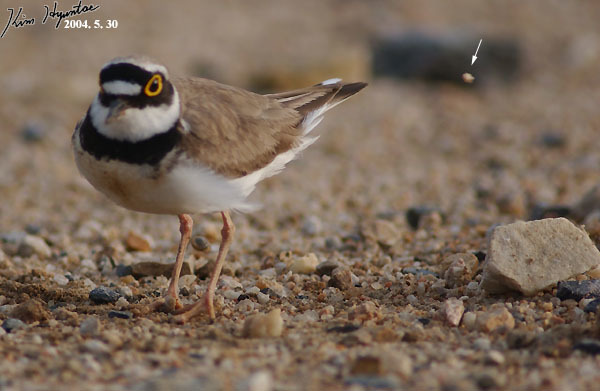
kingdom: Animalia
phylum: Chordata
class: Aves
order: Charadriiformes
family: Charadriidae
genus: Charadrius
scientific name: Charadrius dubius
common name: Little ringed plover
